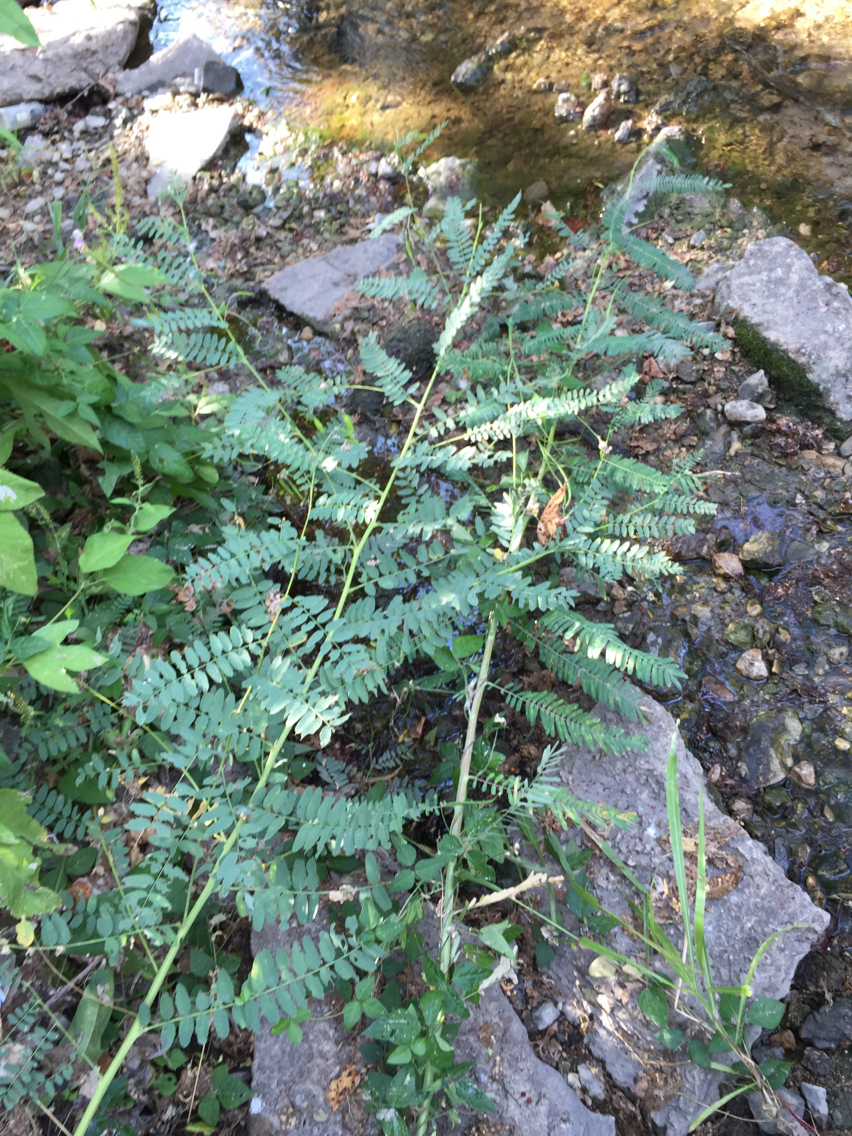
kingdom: Plantae
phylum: Tracheophyta
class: Magnoliopsida
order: Fabales
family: Fabaceae
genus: Sesbania
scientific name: Sesbania vesicaria
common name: Bagpod
